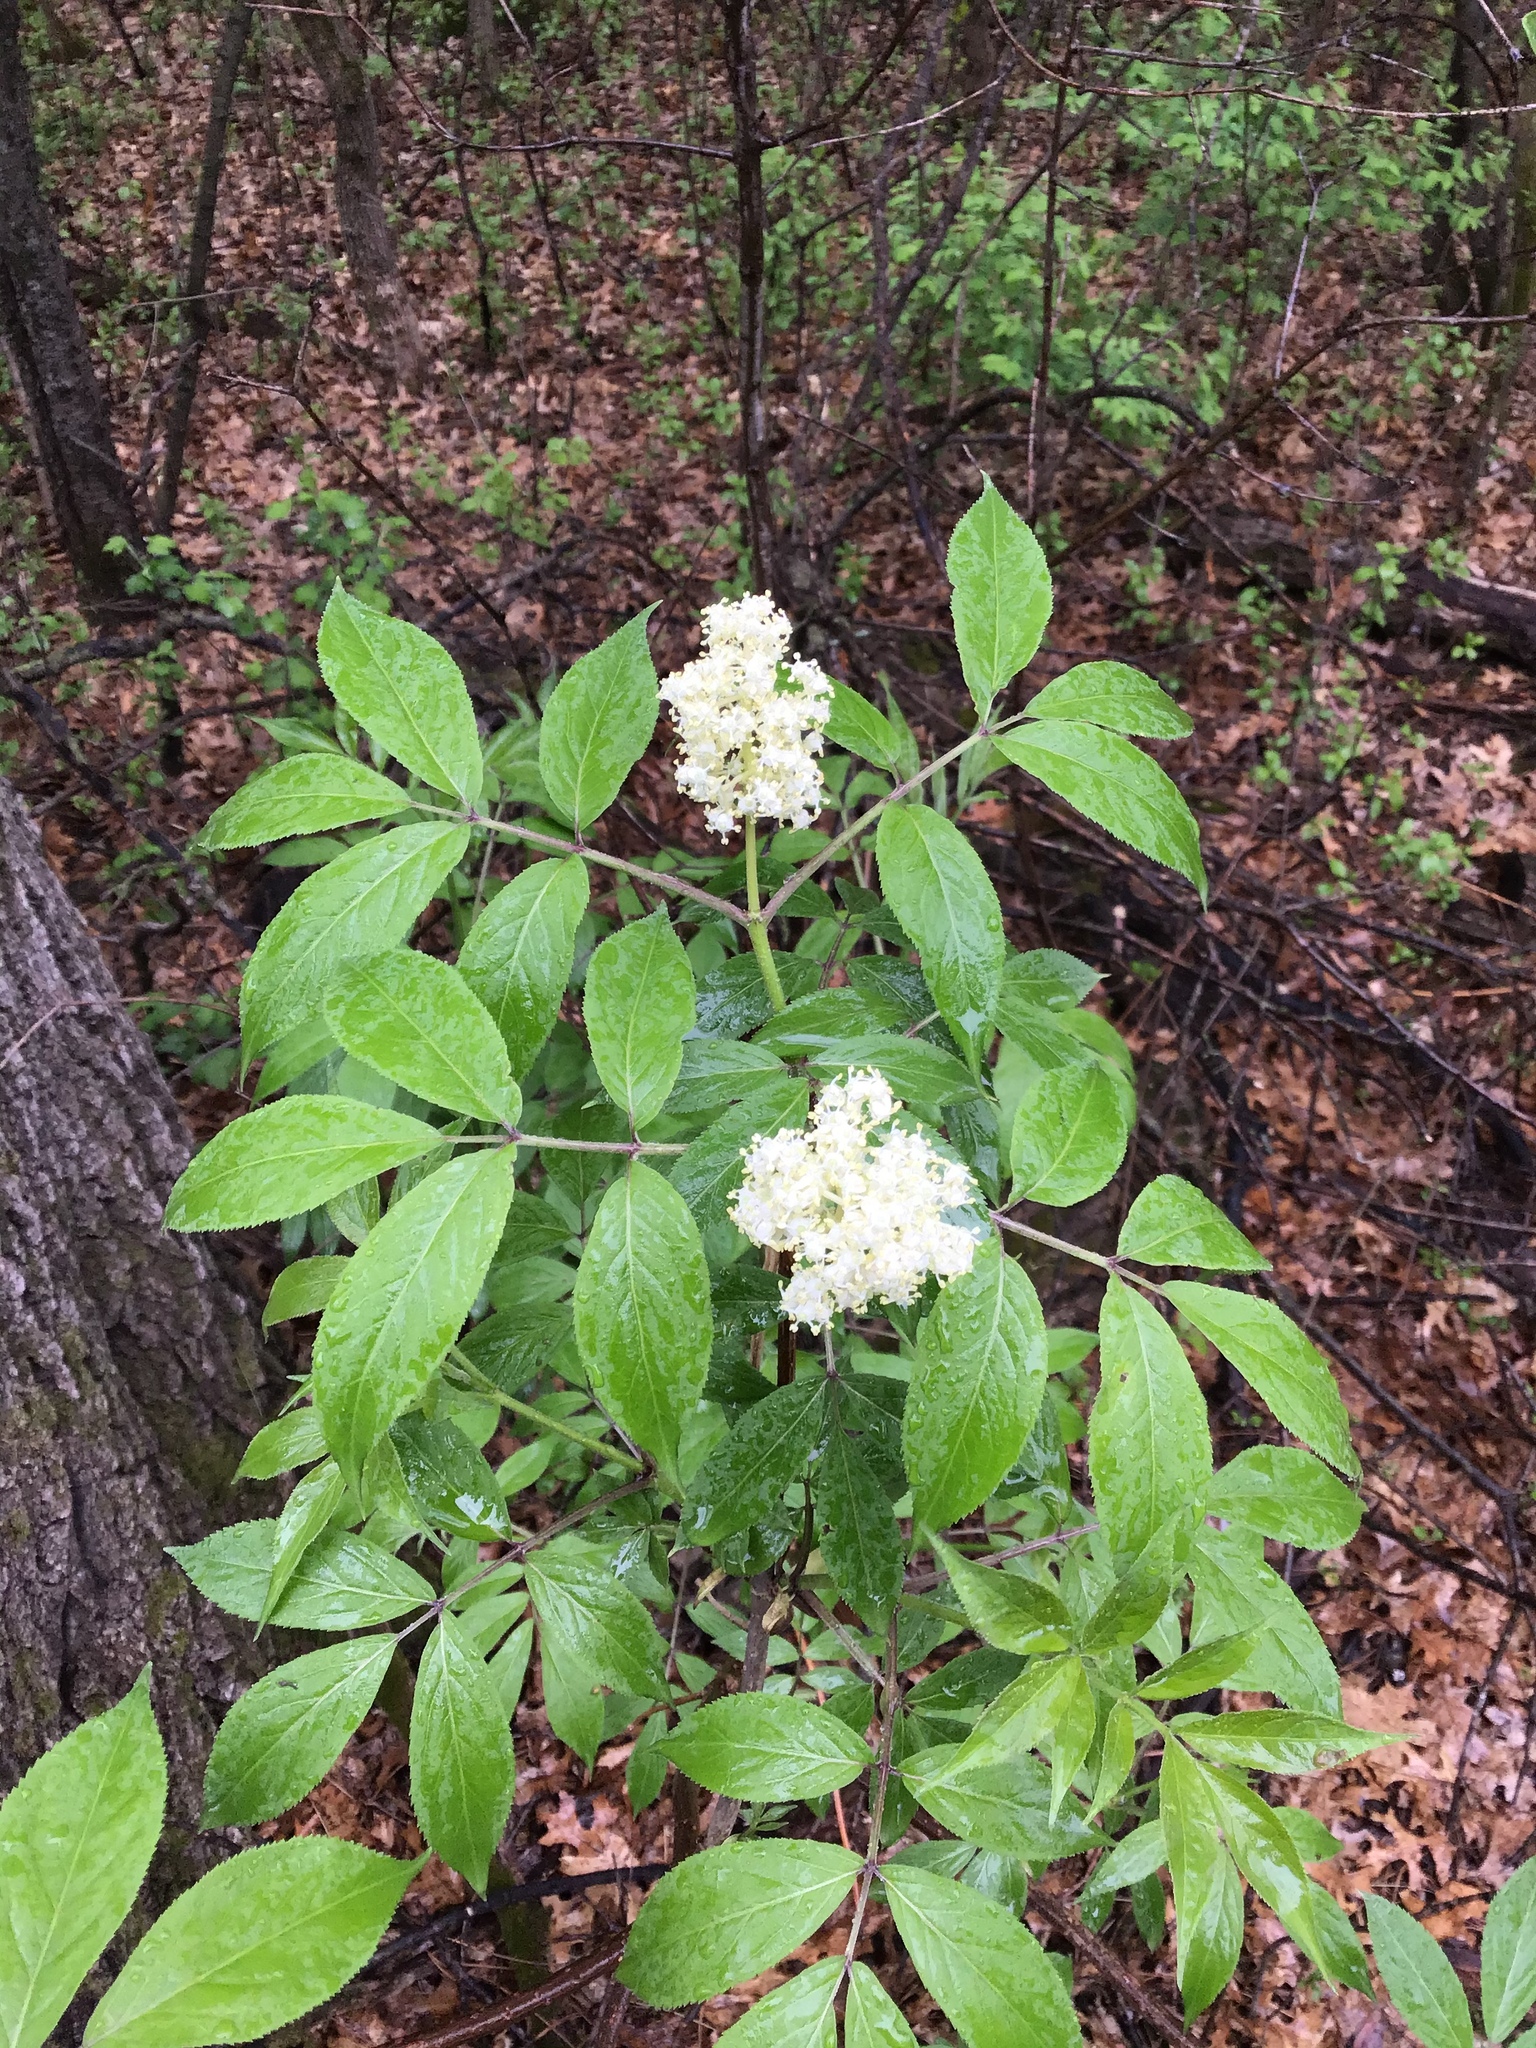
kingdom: Plantae
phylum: Tracheophyta
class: Magnoliopsida
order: Dipsacales
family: Viburnaceae
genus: Sambucus
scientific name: Sambucus racemosa
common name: Red-berried elder
